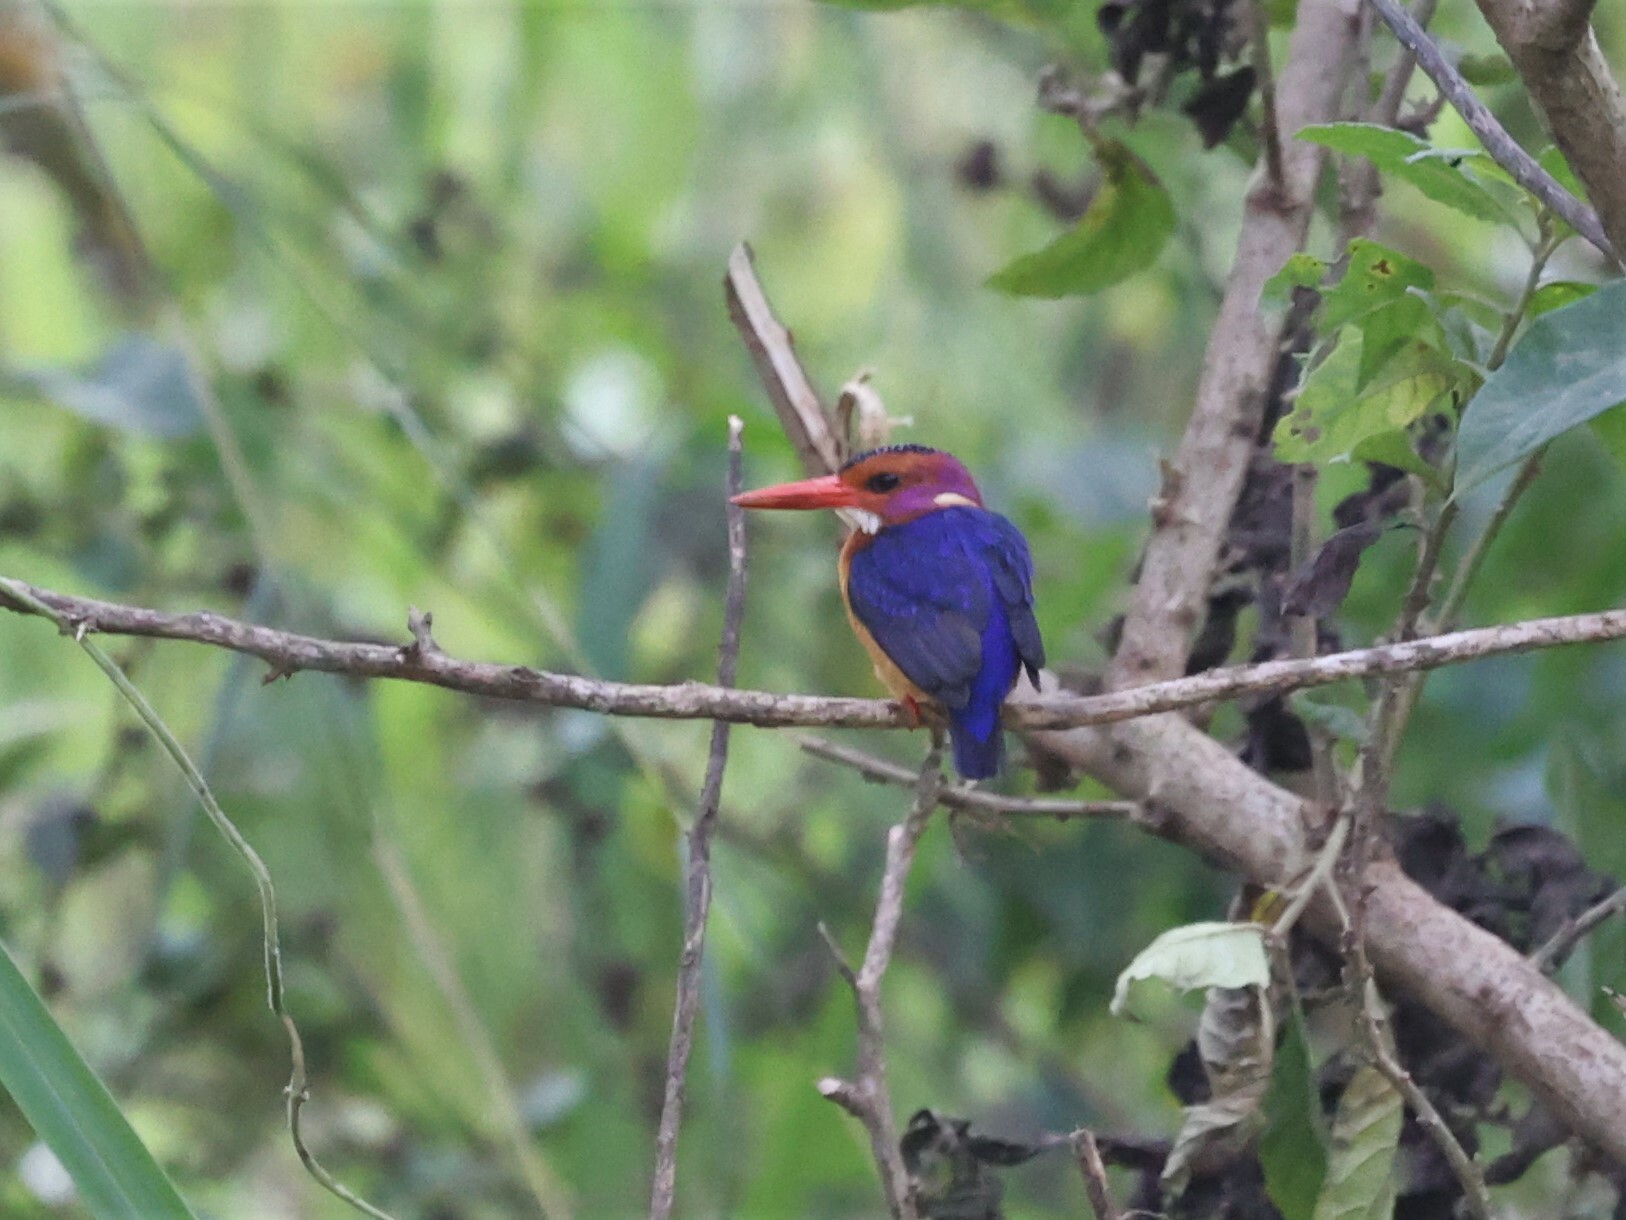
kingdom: Animalia
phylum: Chordata
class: Aves
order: Coraciiformes
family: Alcedinidae
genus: Ispidina
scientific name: Ispidina picta
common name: African pygmy-kingfisher
